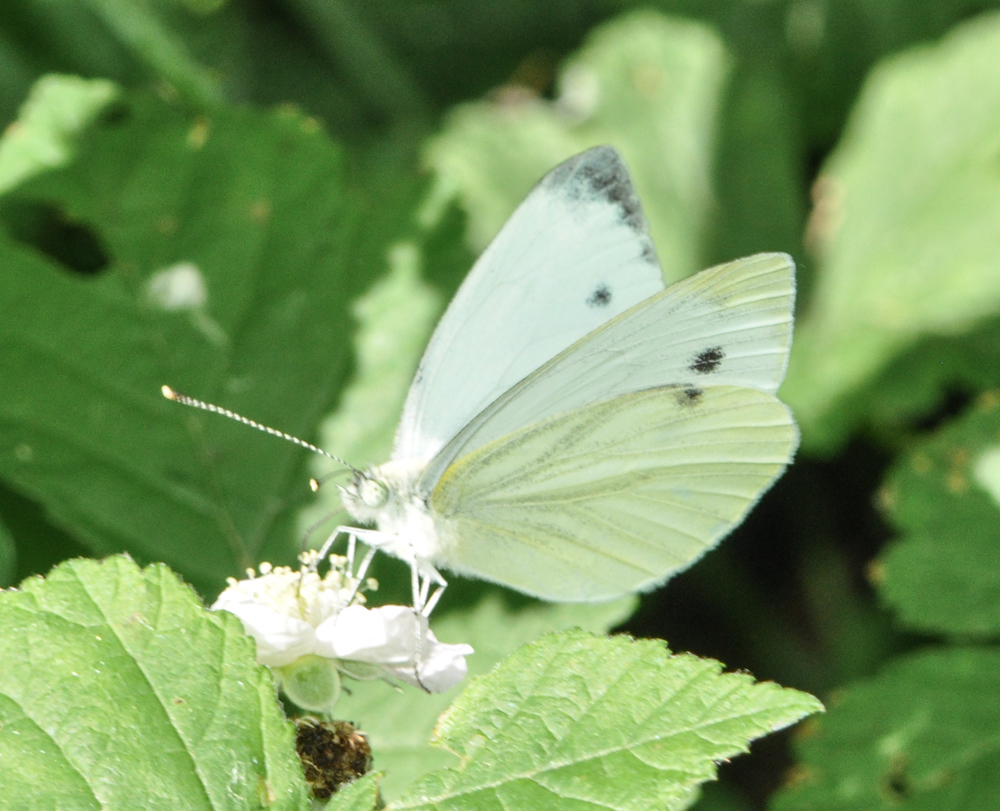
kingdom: Animalia
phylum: Arthropoda
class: Insecta
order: Lepidoptera
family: Pieridae
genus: Pieris
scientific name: Pieris napi
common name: Green-veined white
